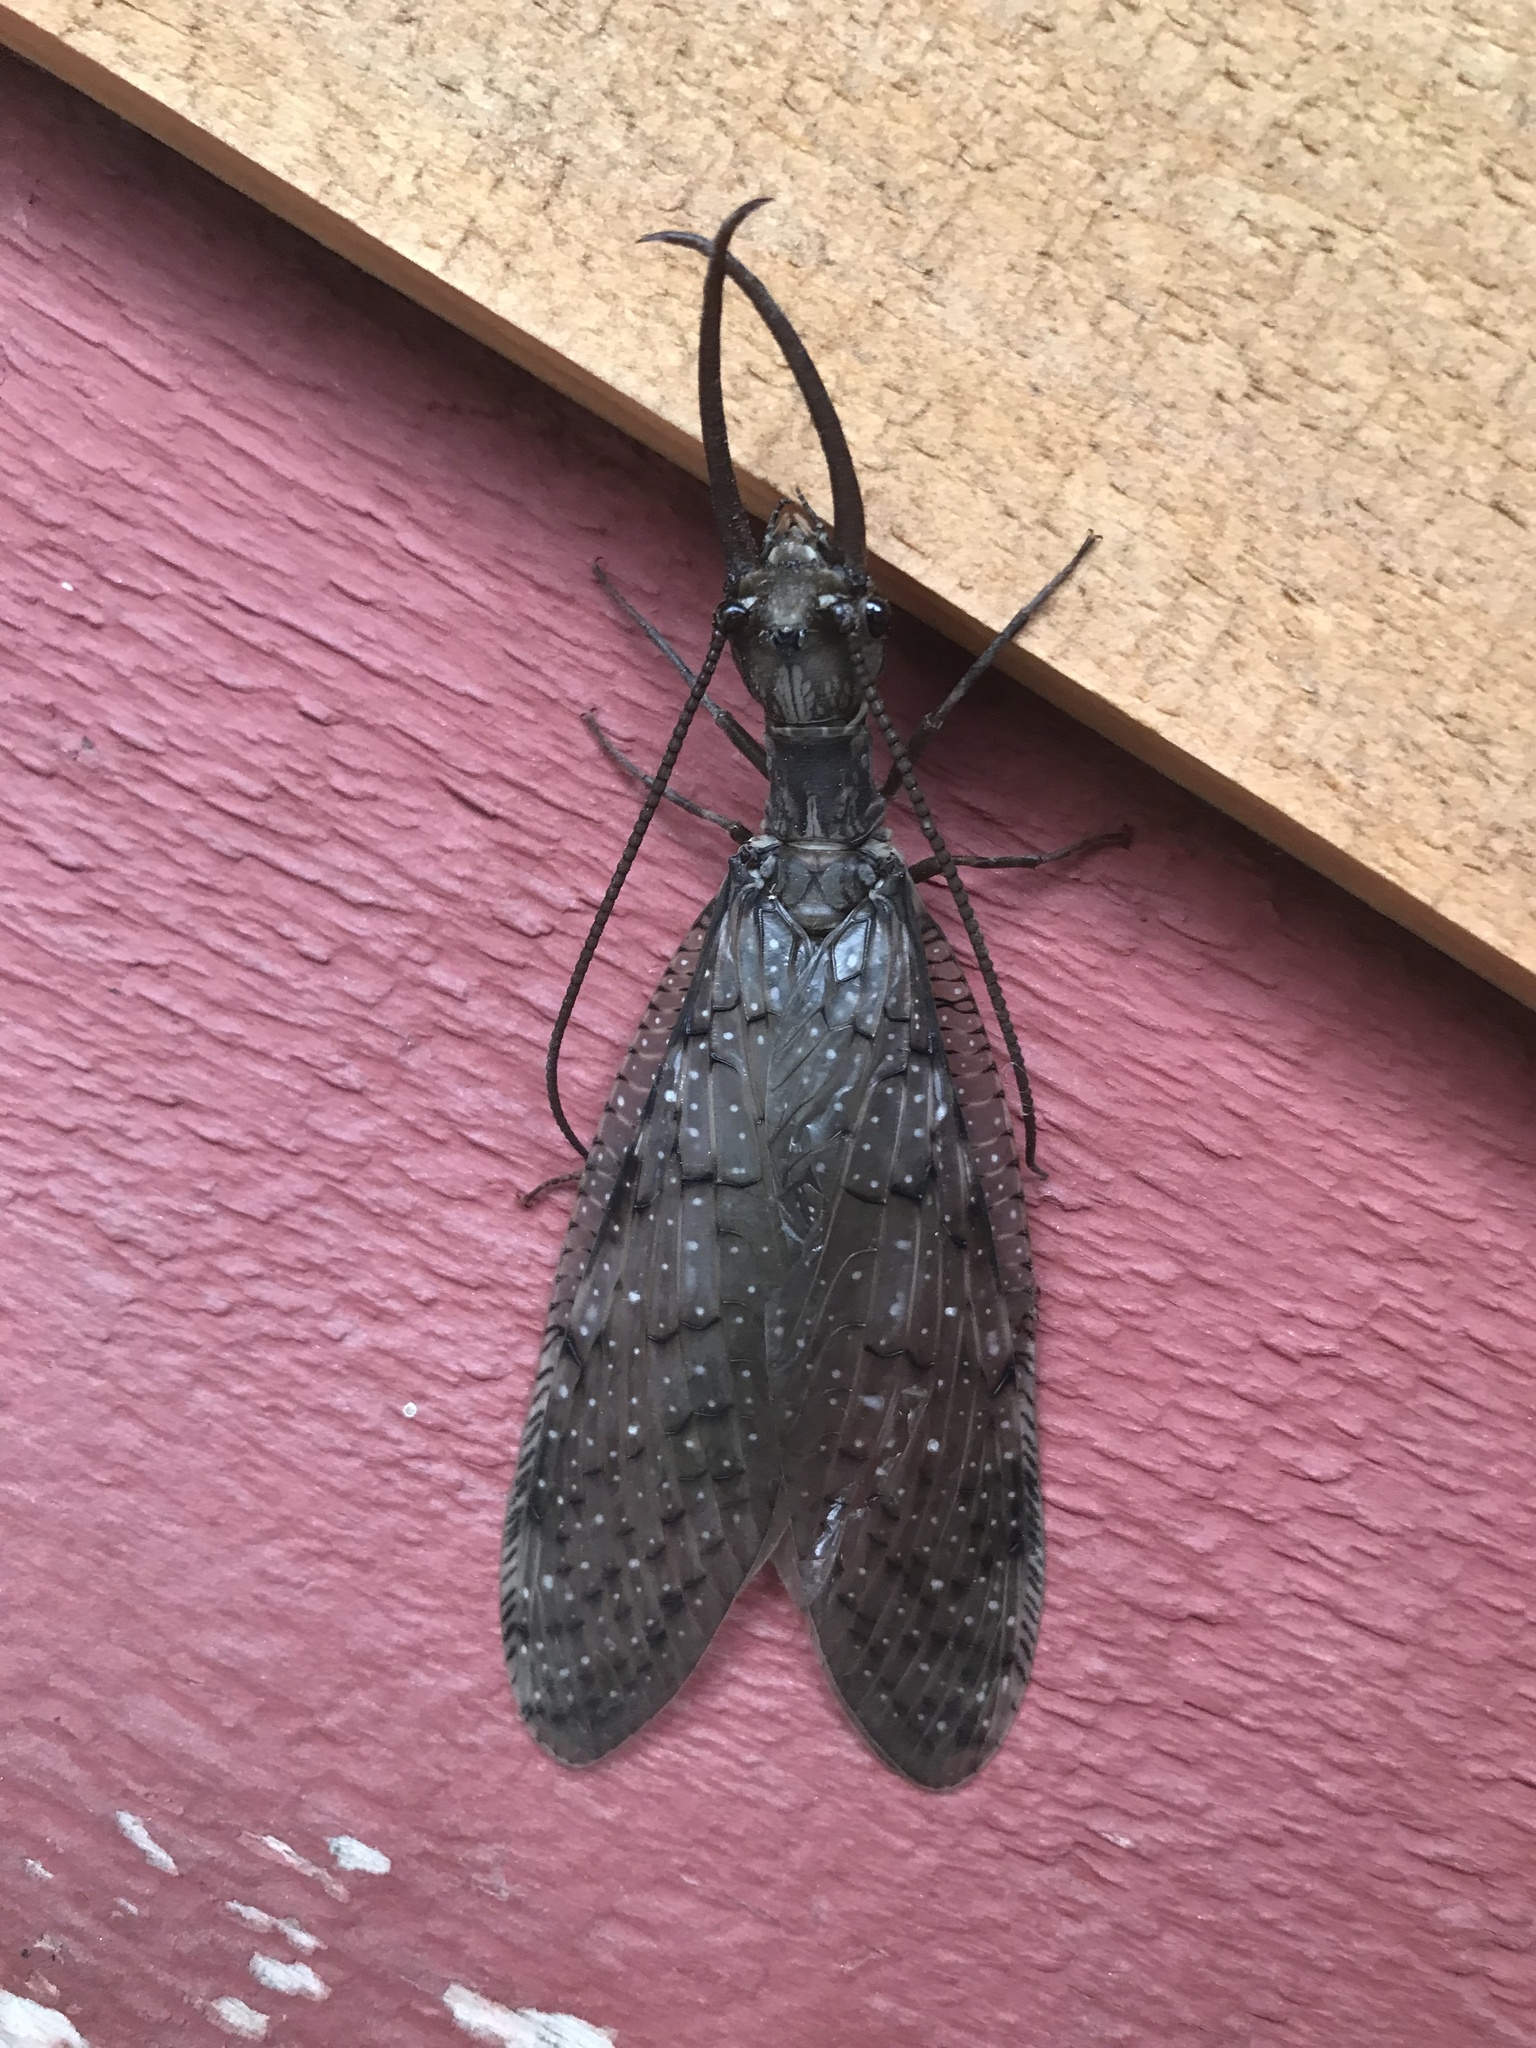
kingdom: Animalia
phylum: Arthropoda
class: Insecta
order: Megaloptera
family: Corydalidae
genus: Corydalus
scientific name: Corydalus cornutus
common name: Dobsonfly
